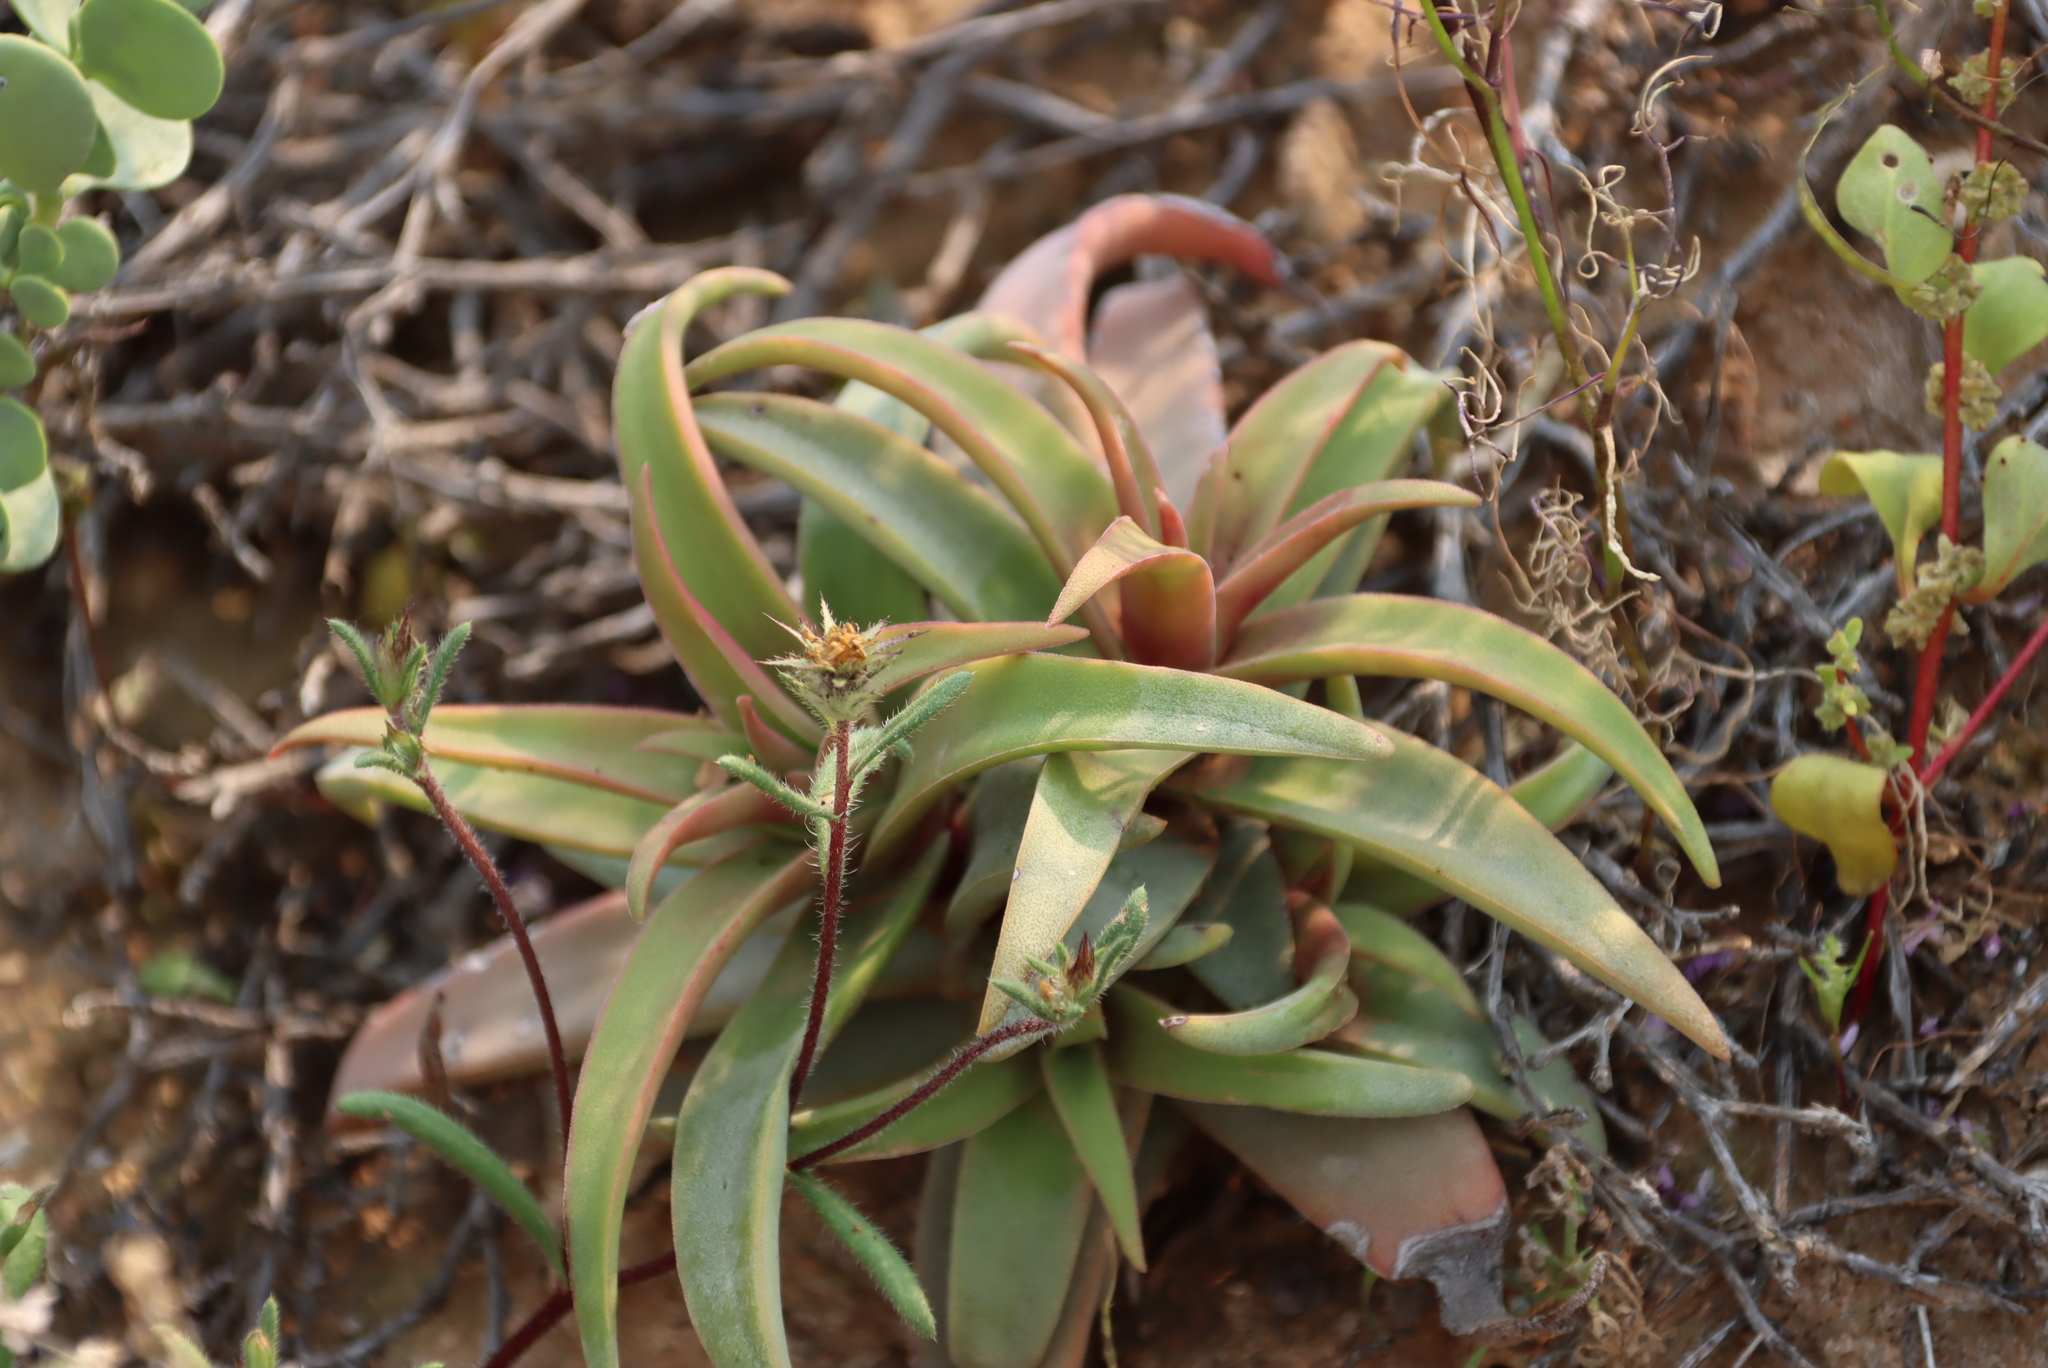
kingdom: Plantae
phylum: Tracheophyta
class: Magnoliopsida
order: Saxifragales
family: Crassulaceae
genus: Crassula
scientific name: Crassula fusca
